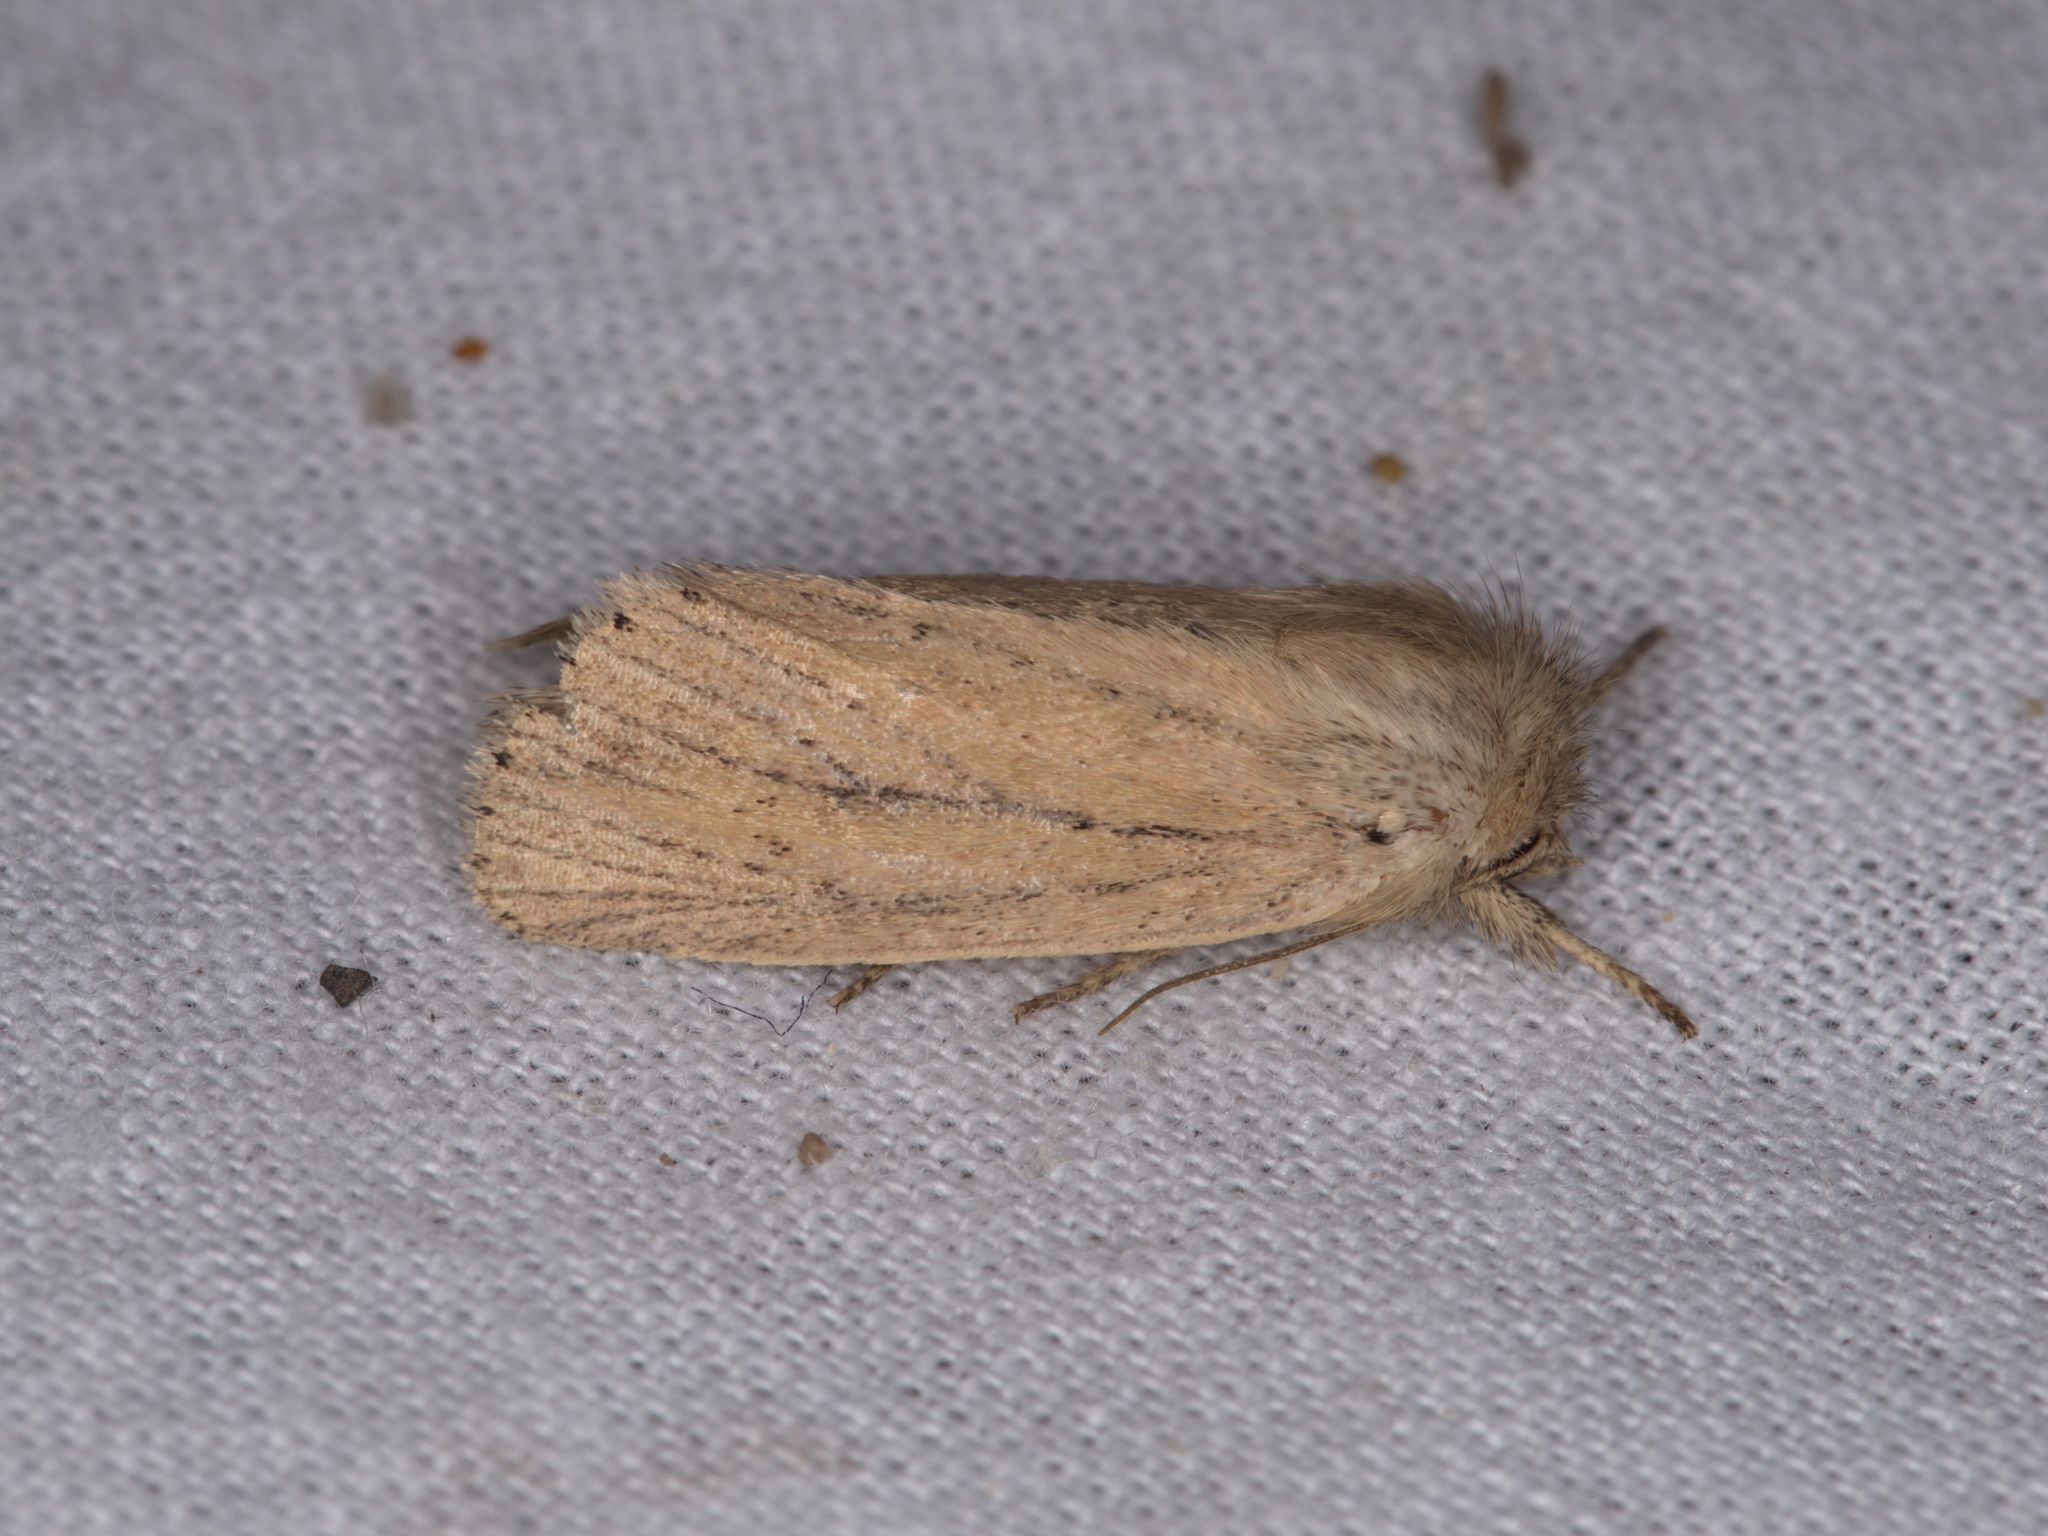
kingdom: Animalia
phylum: Arthropoda
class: Insecta
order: Lepidoptera
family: Noctuidae
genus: Bathytricha
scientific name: Bathytricha truncata
